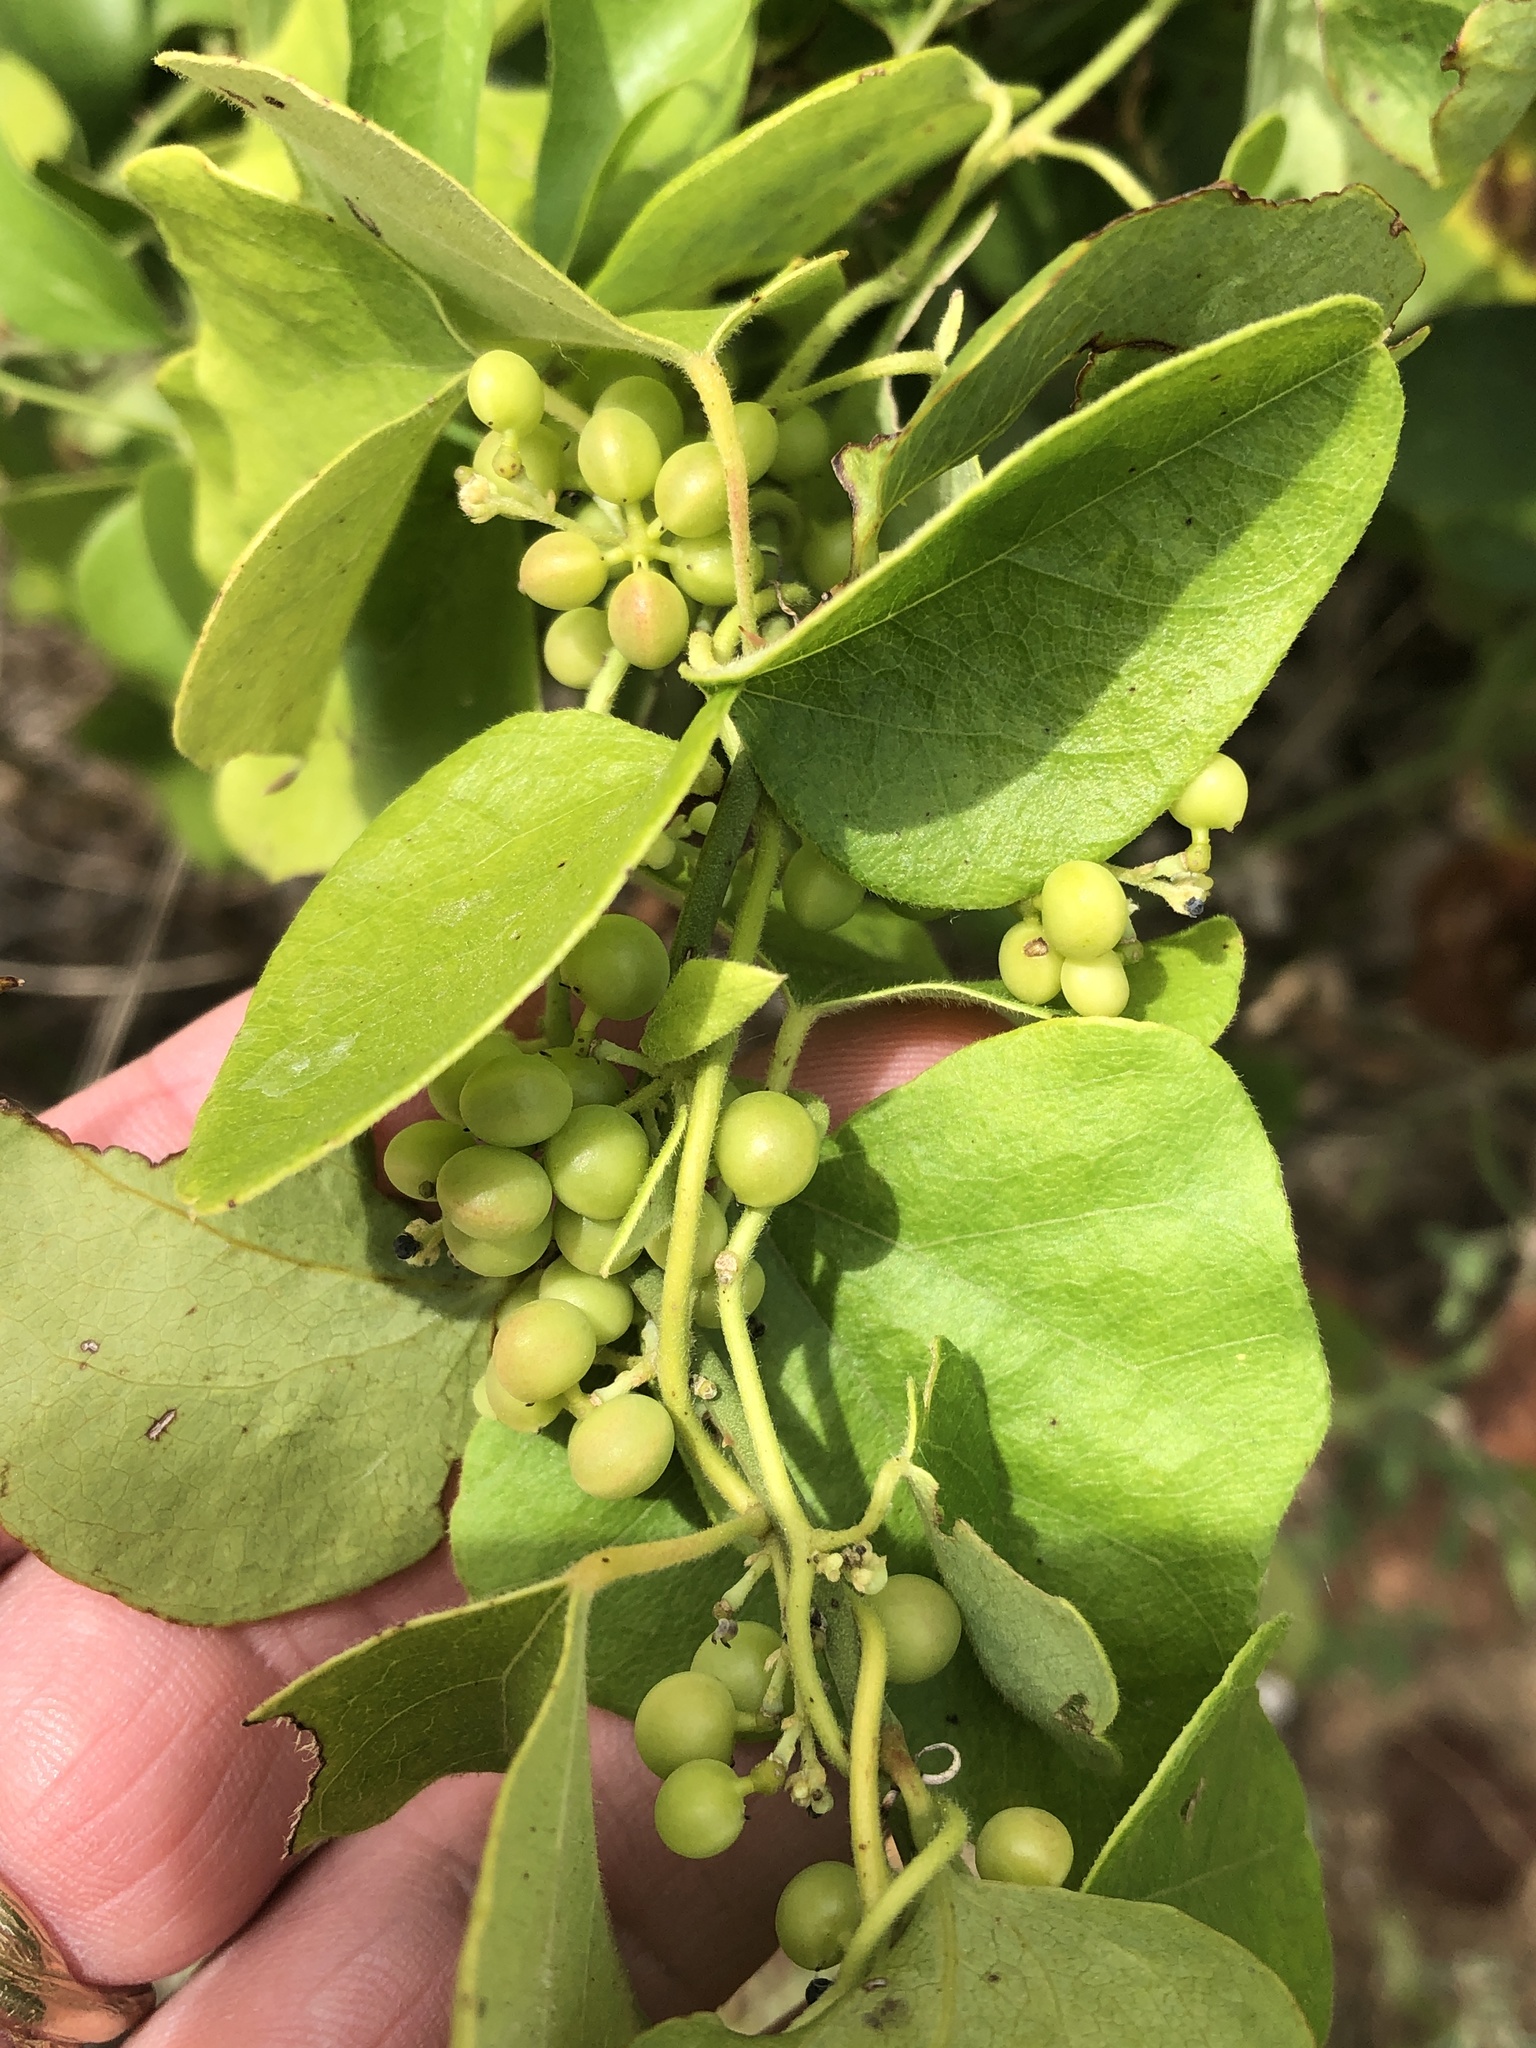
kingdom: Plantae
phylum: Tracheophyta
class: Magnoliopsida
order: Ranunculales
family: Menispermaceae
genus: Cocculus
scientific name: Cocculus carolinus
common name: Carolina moonseed
